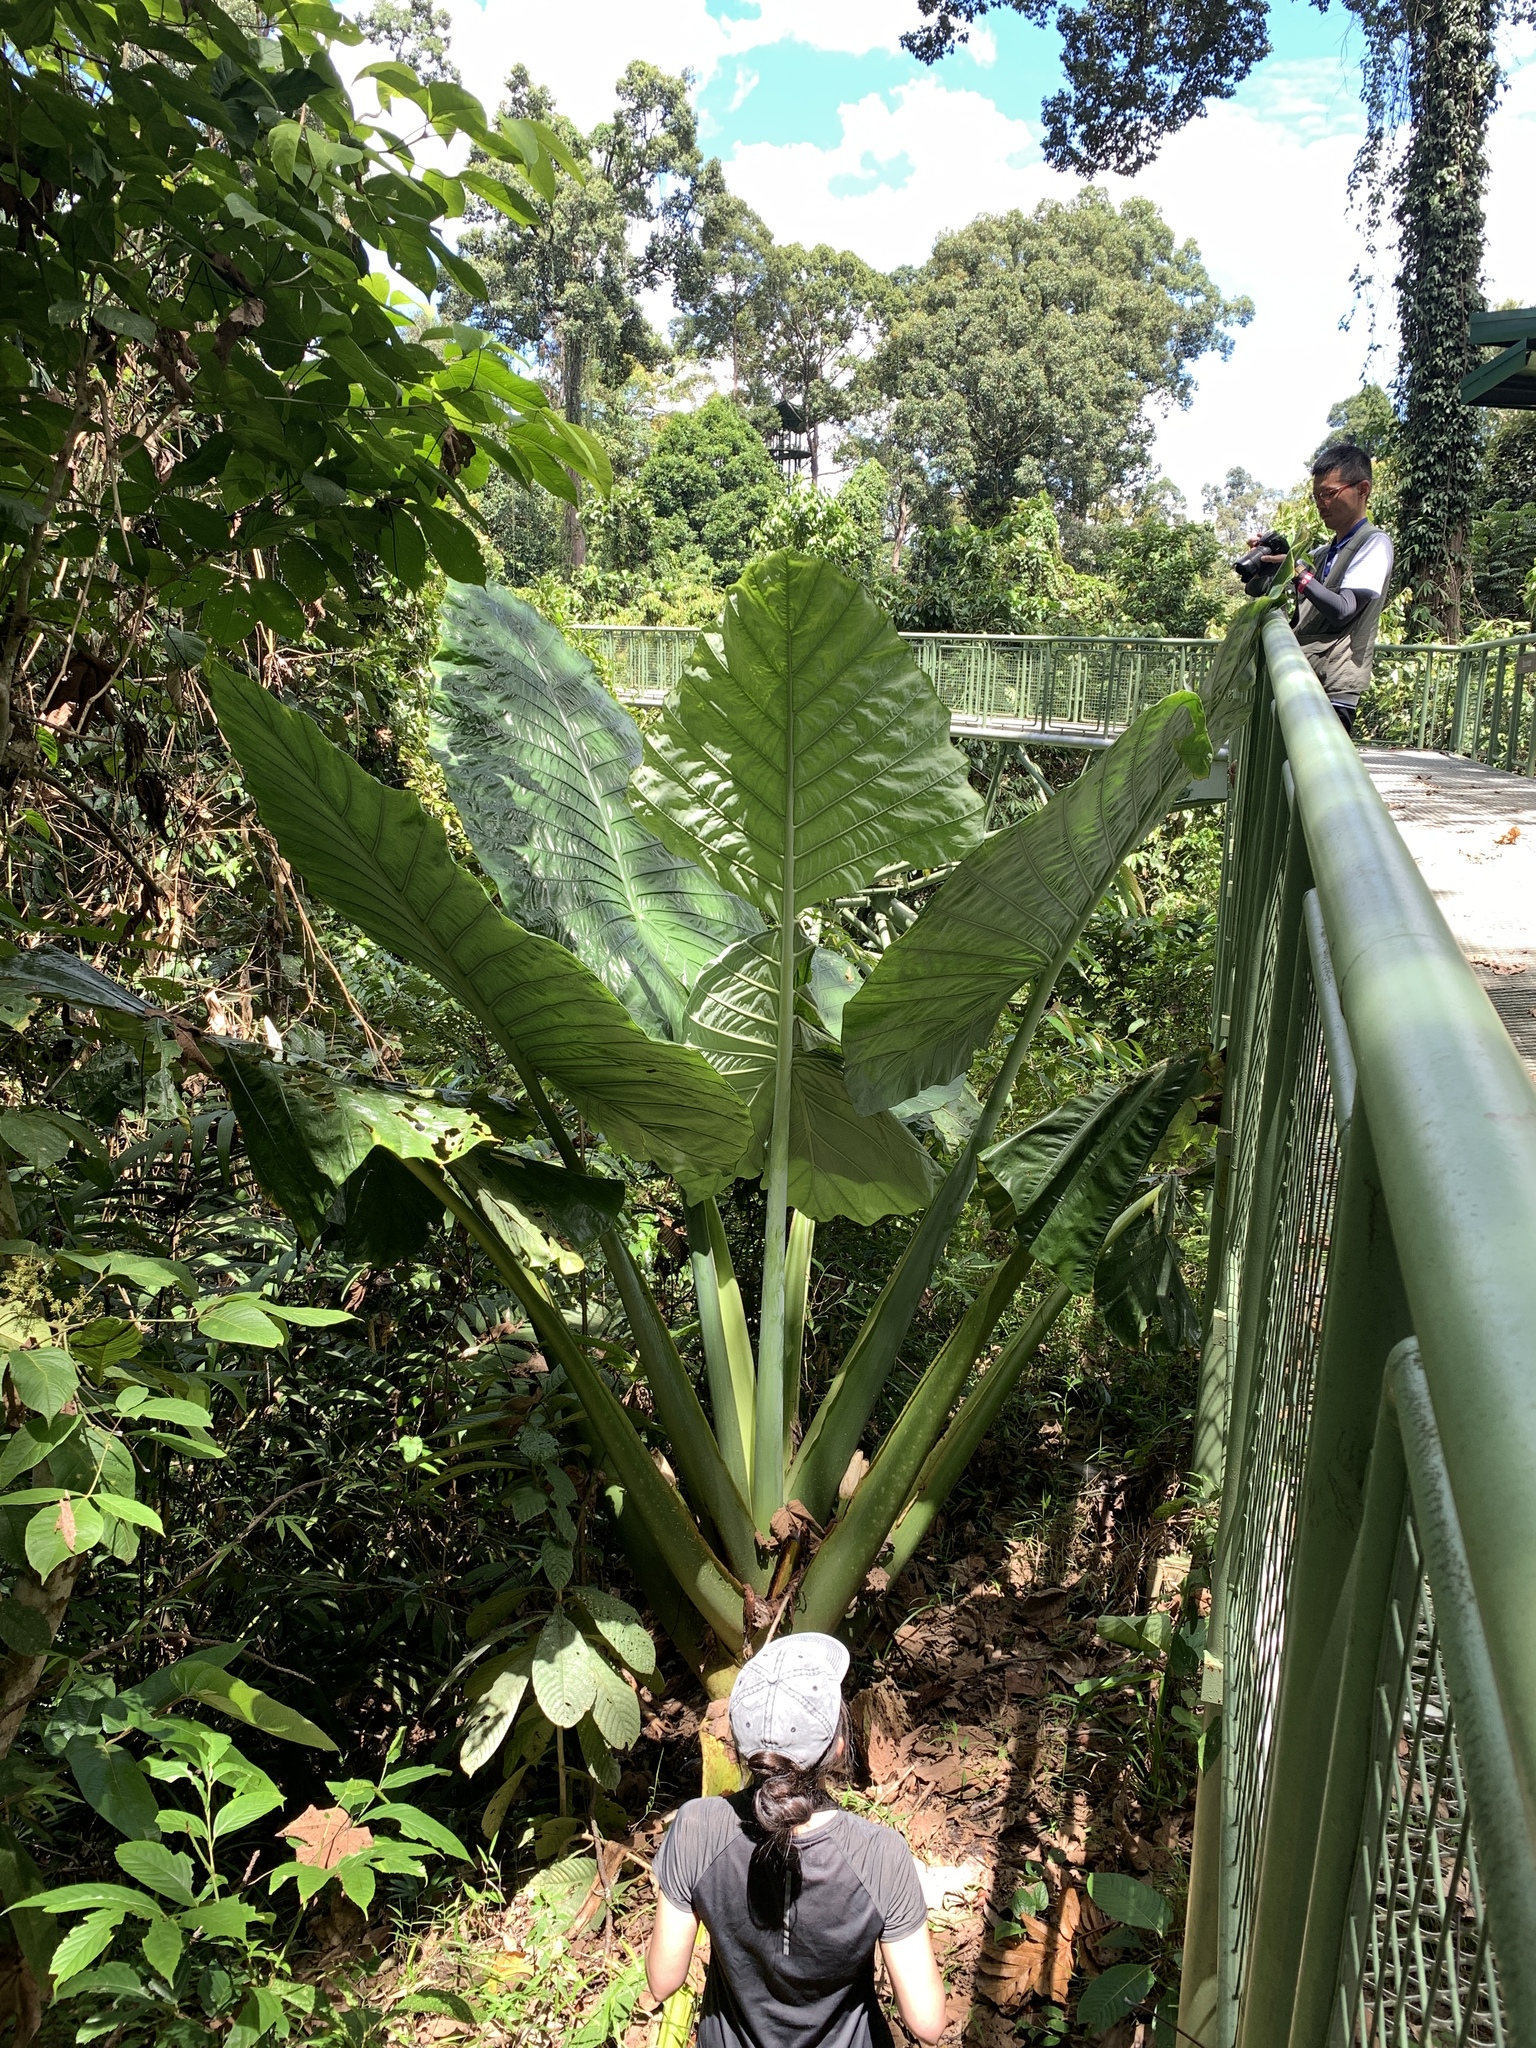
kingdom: Plantae
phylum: Tracheophyta
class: Liliopsida
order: Alismatales
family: Araceae
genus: Alocasia
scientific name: Alocasia robusta
